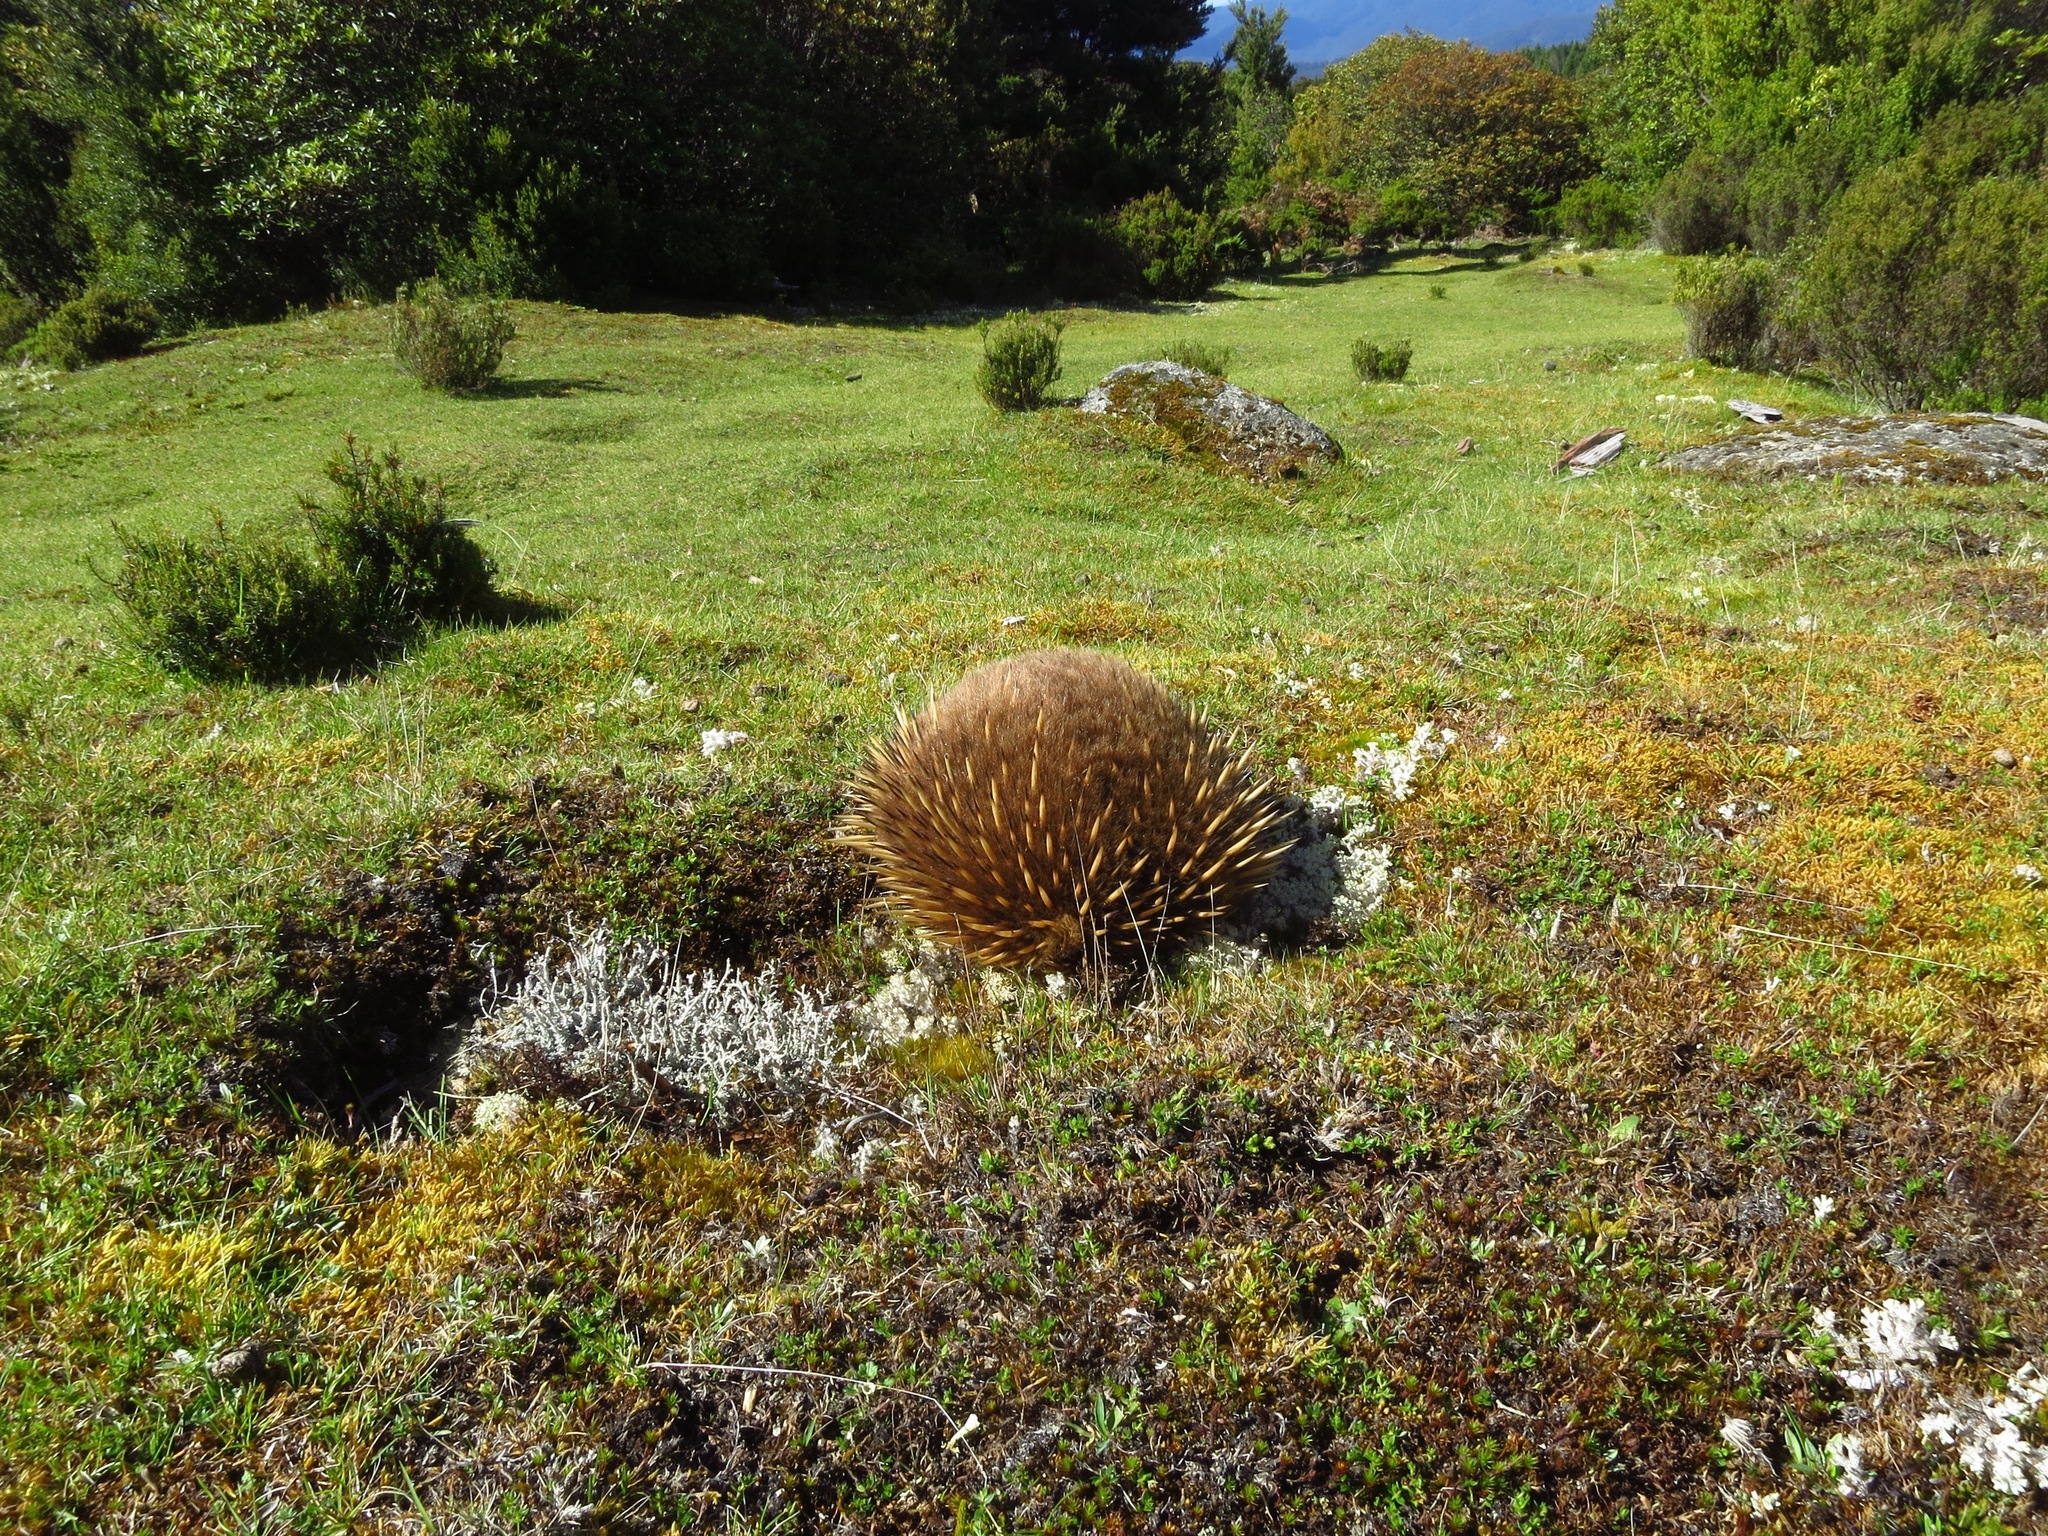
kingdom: Animalia
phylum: Chordata
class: Mammalia
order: Monotremata
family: Tachyglossidae
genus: Tachyglossus
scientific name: Tachyglossus aculeatus
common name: Short-beaked echidna
